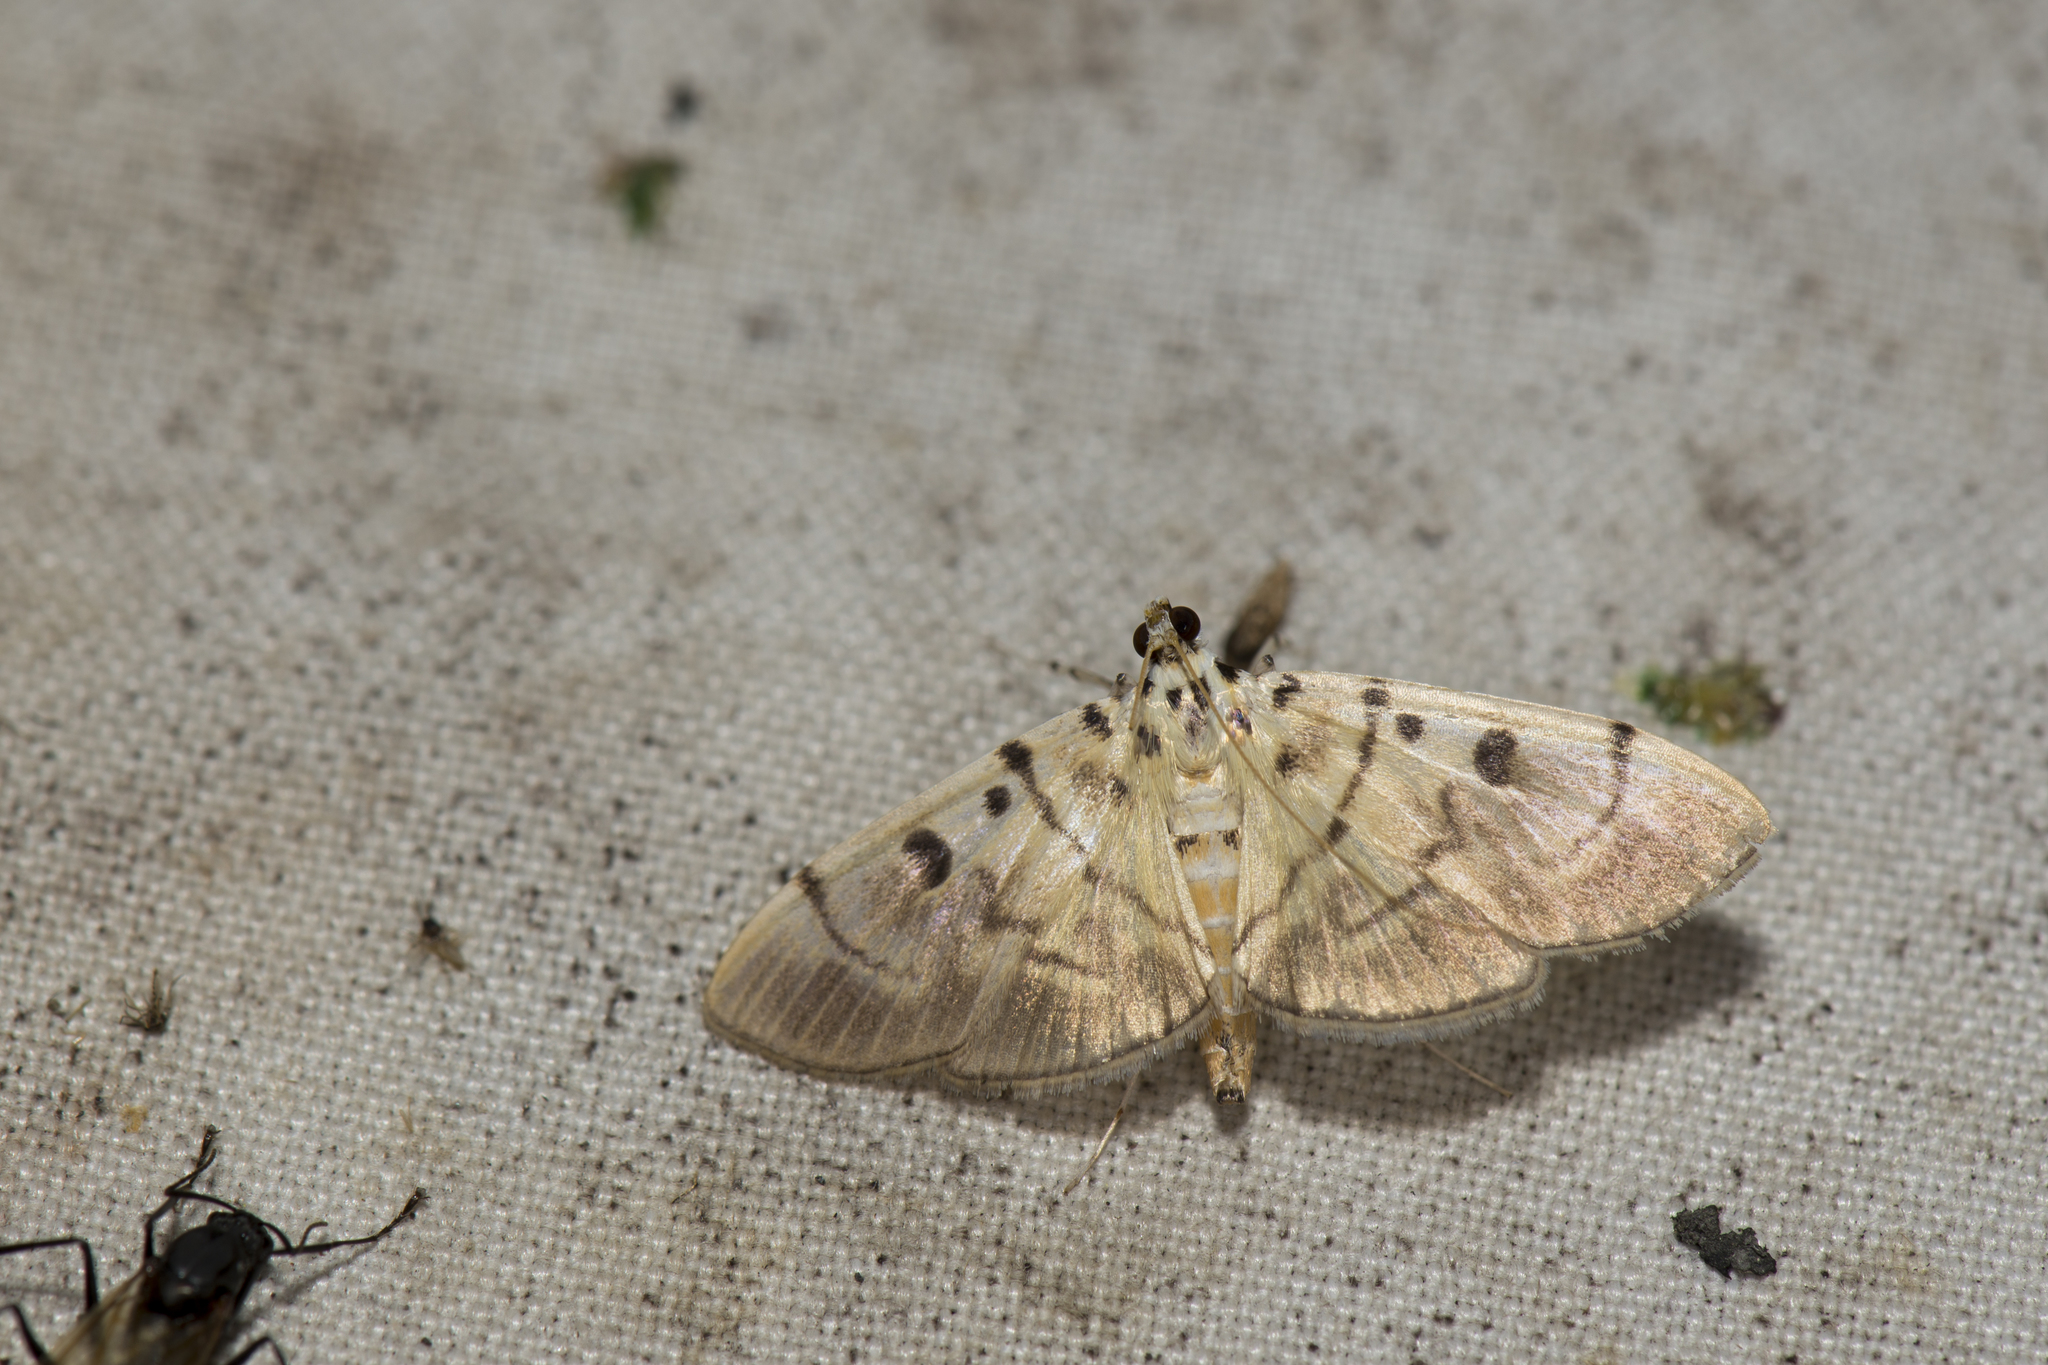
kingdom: Animalia
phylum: Arthropoda
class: Insecta
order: Lepidoptera
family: Crambidae
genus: Dichocrocis
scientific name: Dichocrocis definita
